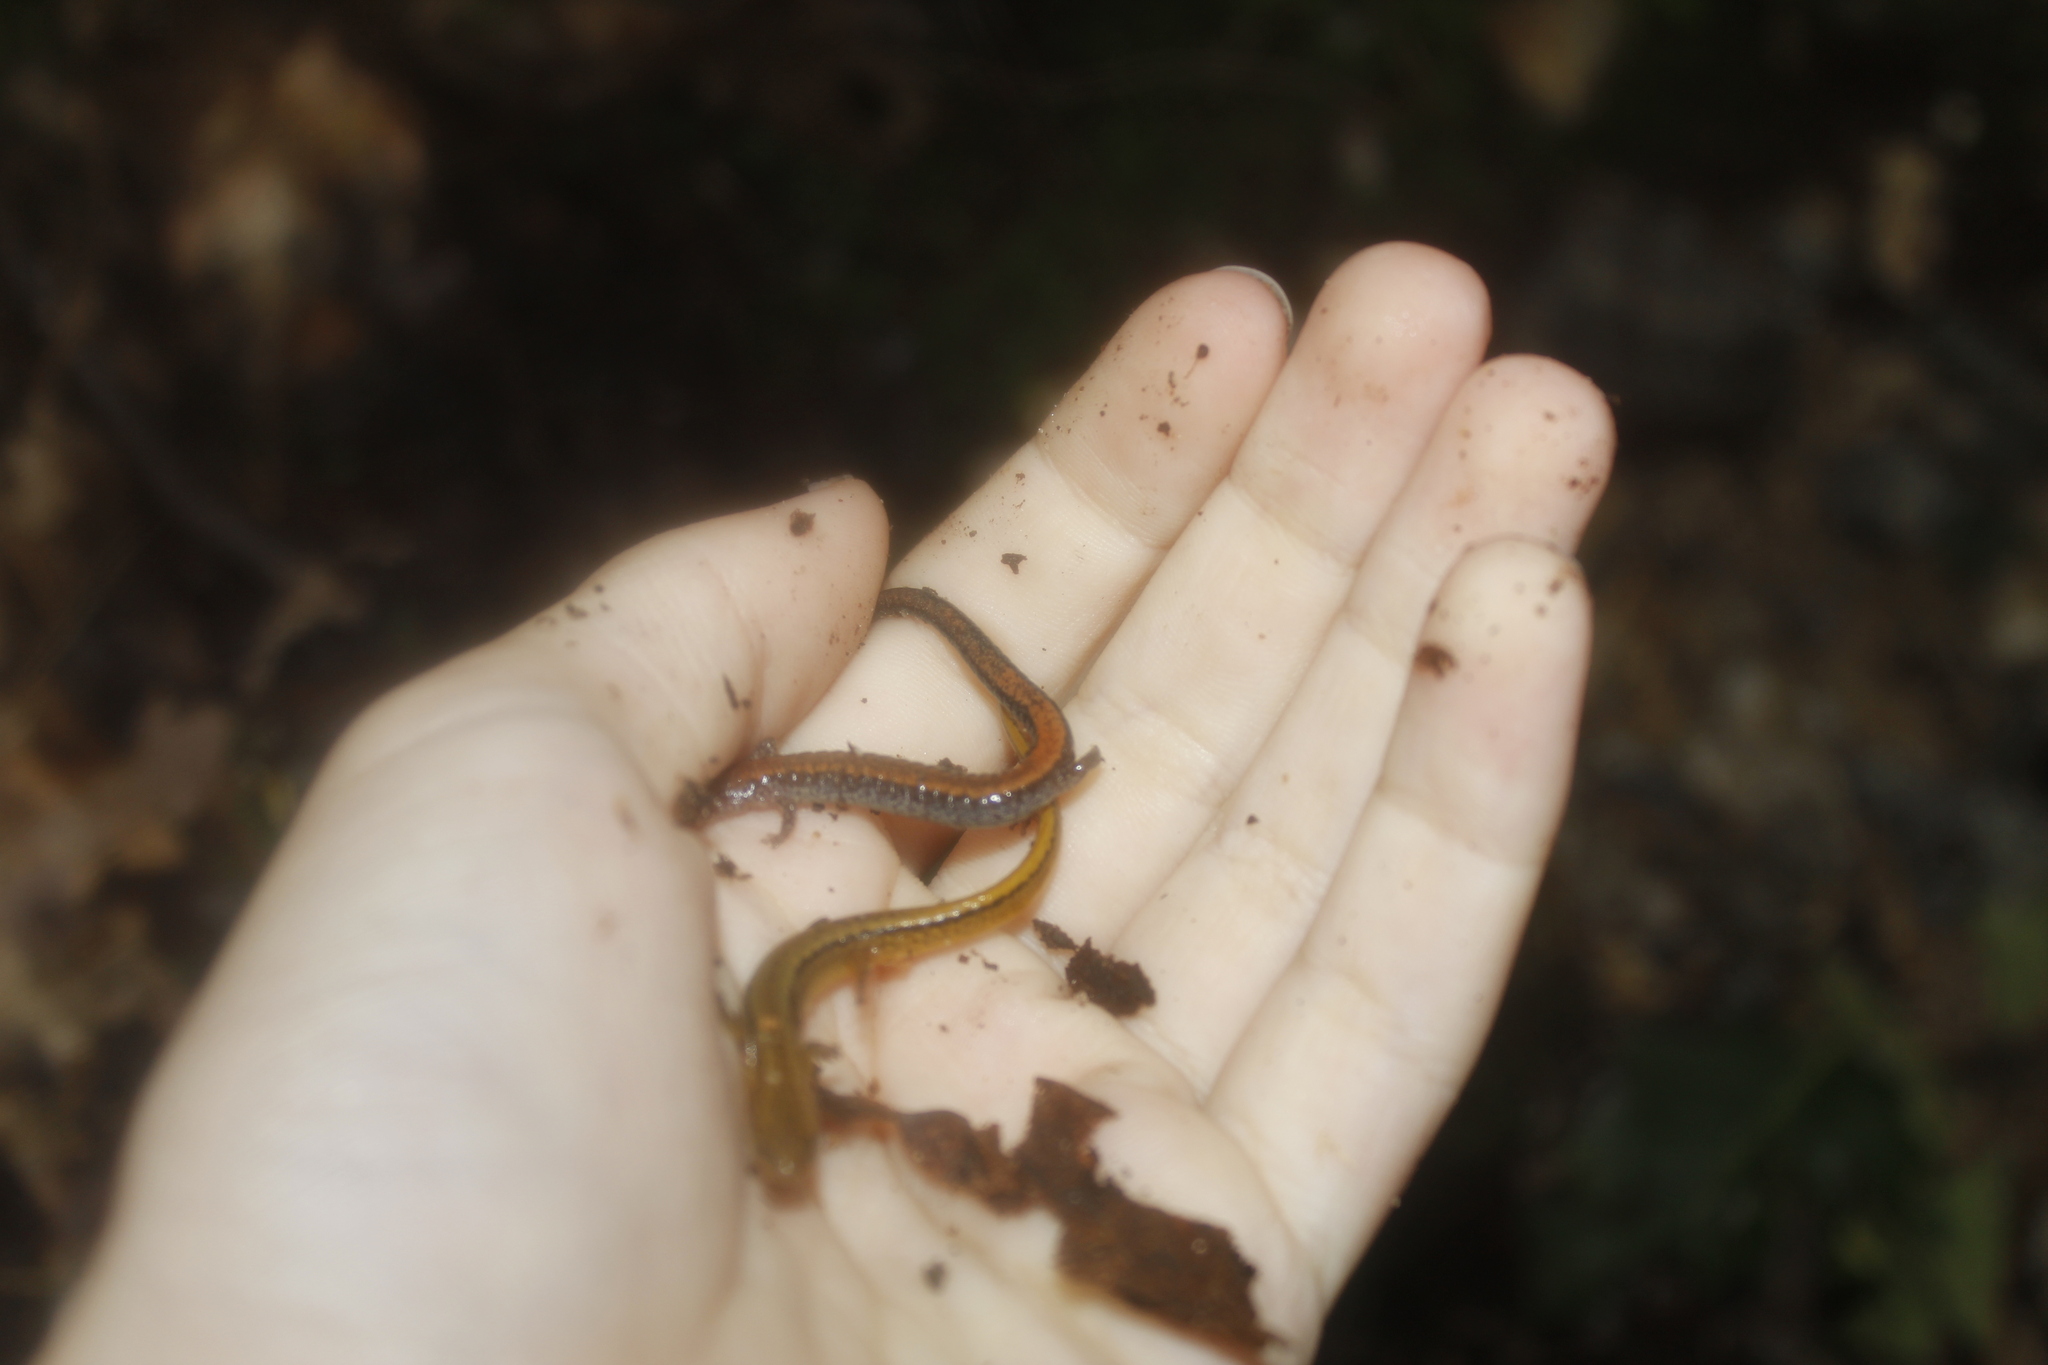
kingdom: Animalia
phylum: Chordata
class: Amphibia
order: Caudata
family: Plethodontidae
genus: Plethodon
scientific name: Plethodon cinereus
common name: Redback salamander
